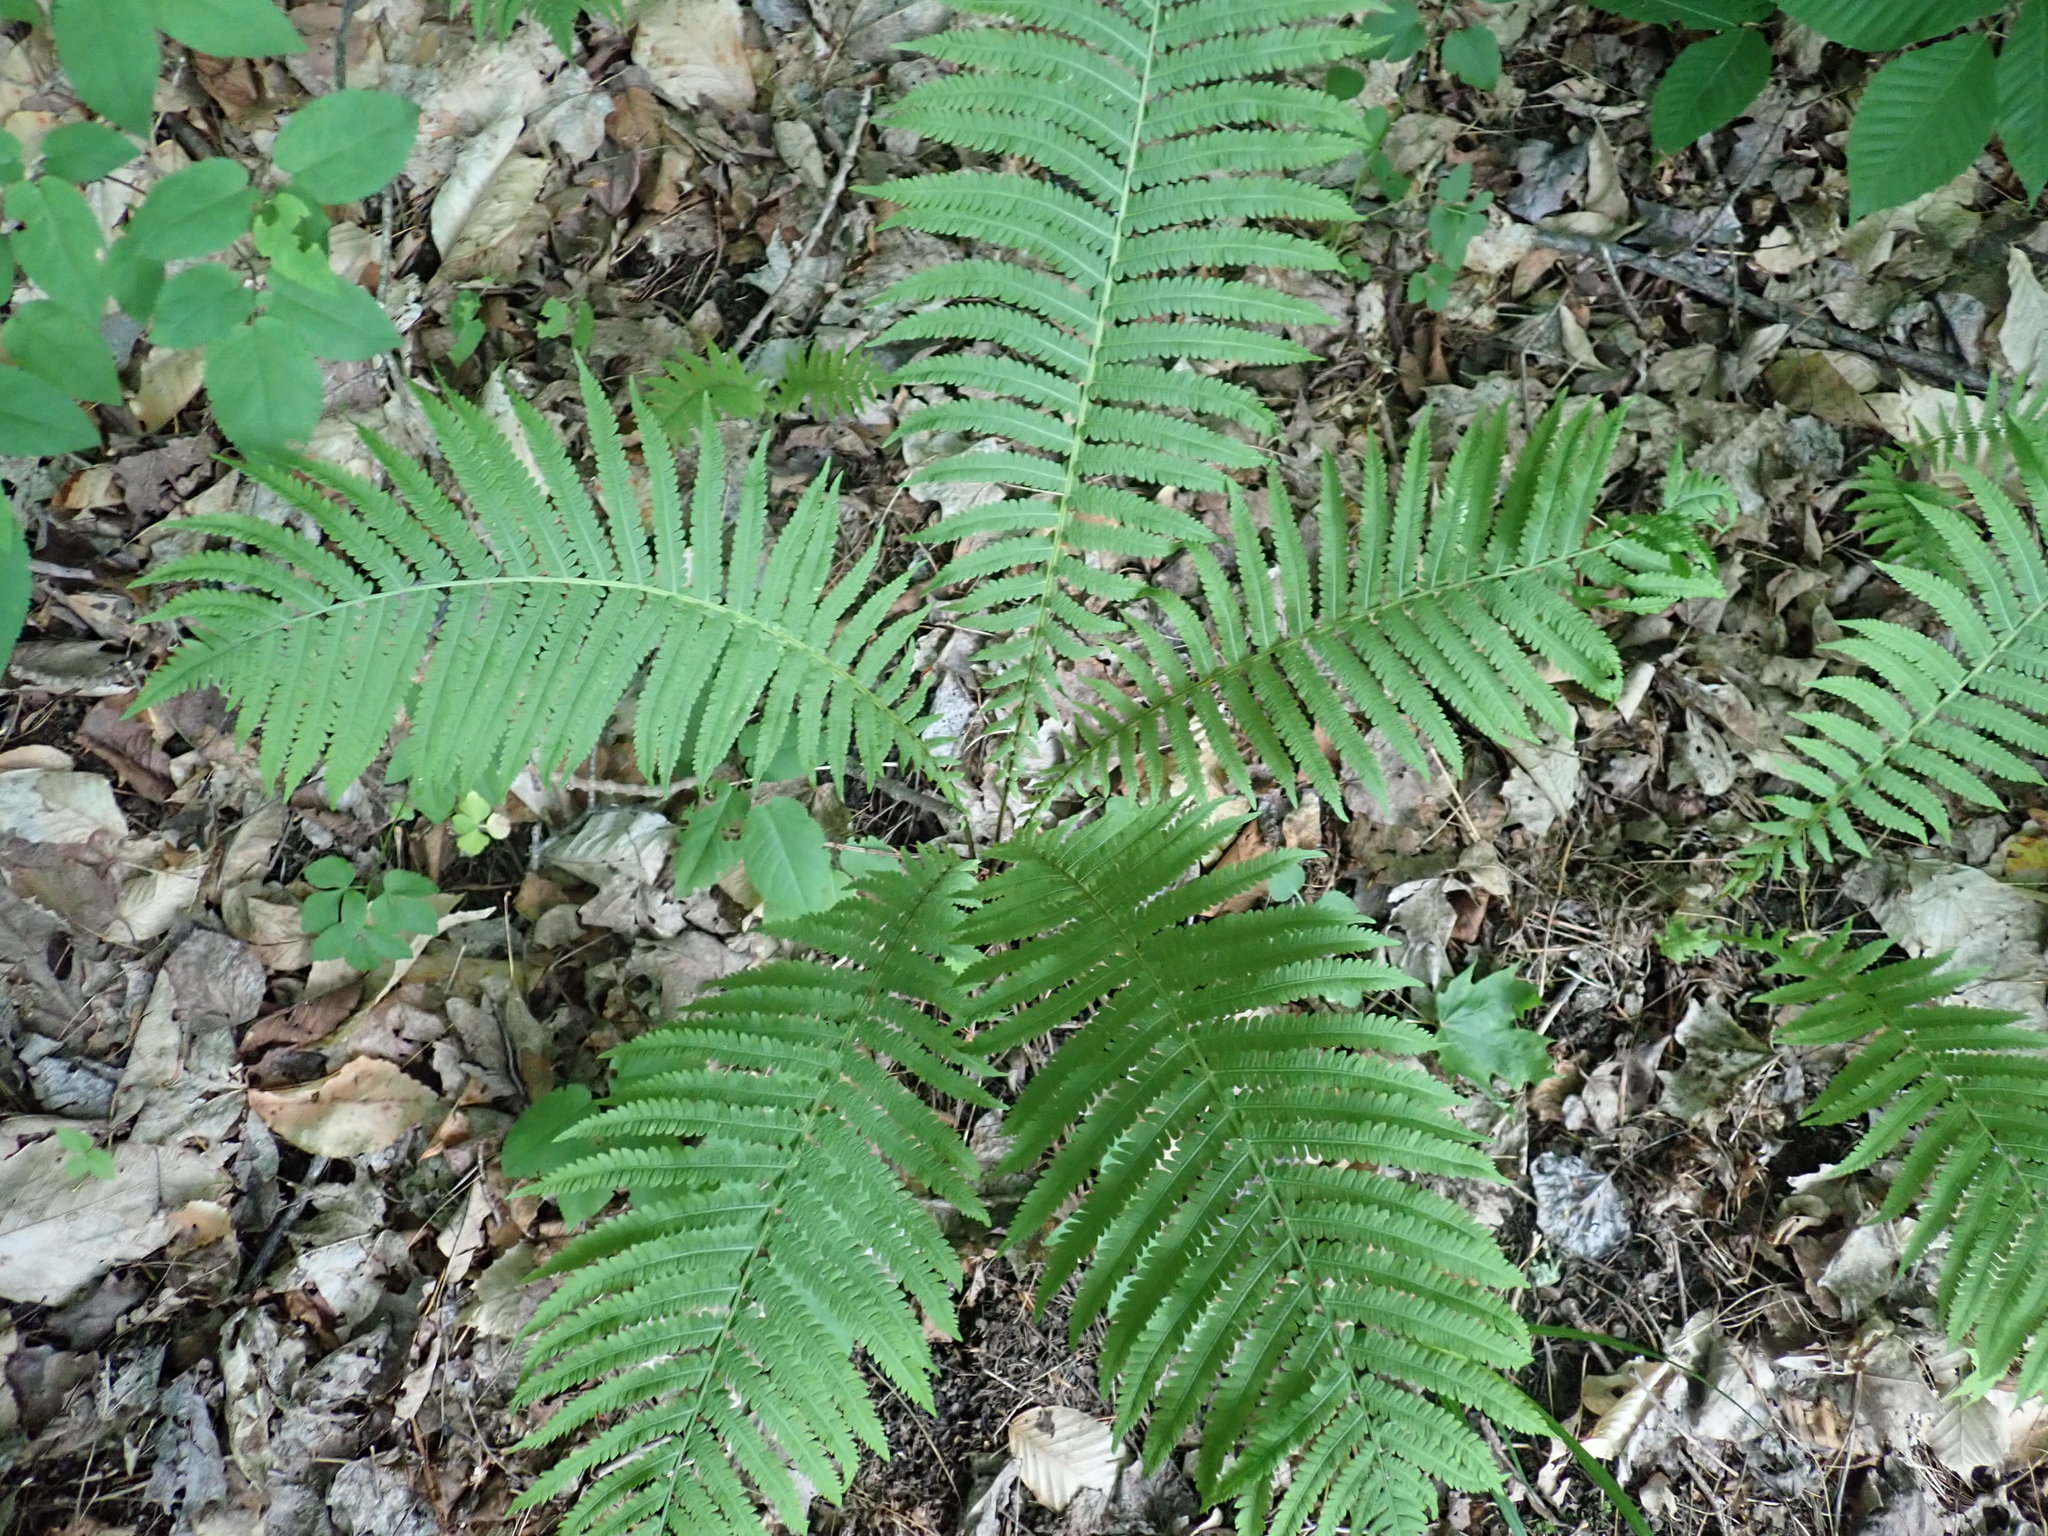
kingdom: Plantae
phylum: Tracheophyta
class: Polypodiopsida
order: Polypodiales
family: Onocleaceae
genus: Matteuccia
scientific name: Matteuccia struthiopteris
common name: Ostrich fern
